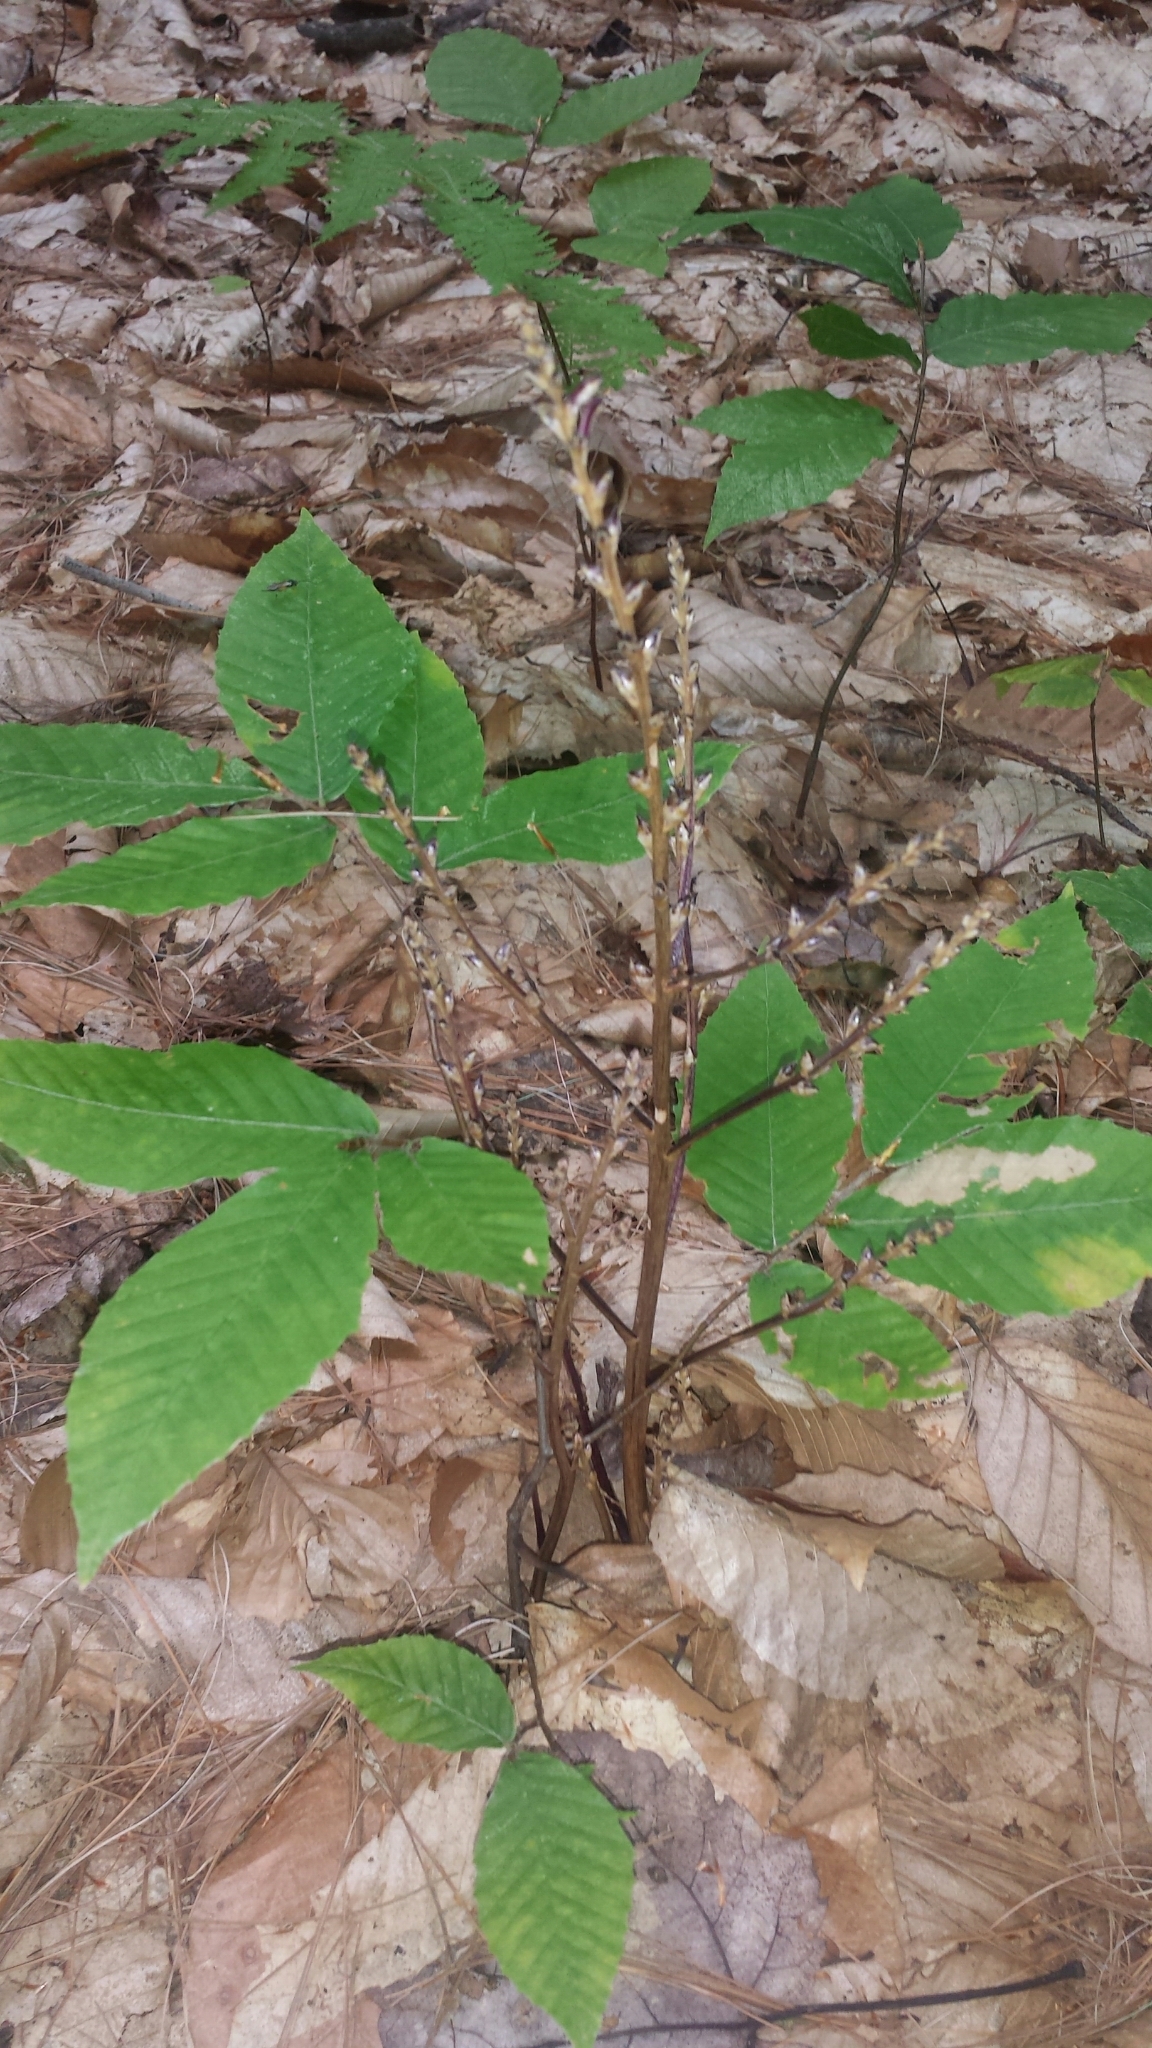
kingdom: Plantae
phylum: Tracheophyta
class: Magnoliopsida
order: Lamiales
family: Orobanchaceae
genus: Epifagus
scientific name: Epifagus virginiana
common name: Beechdrops
